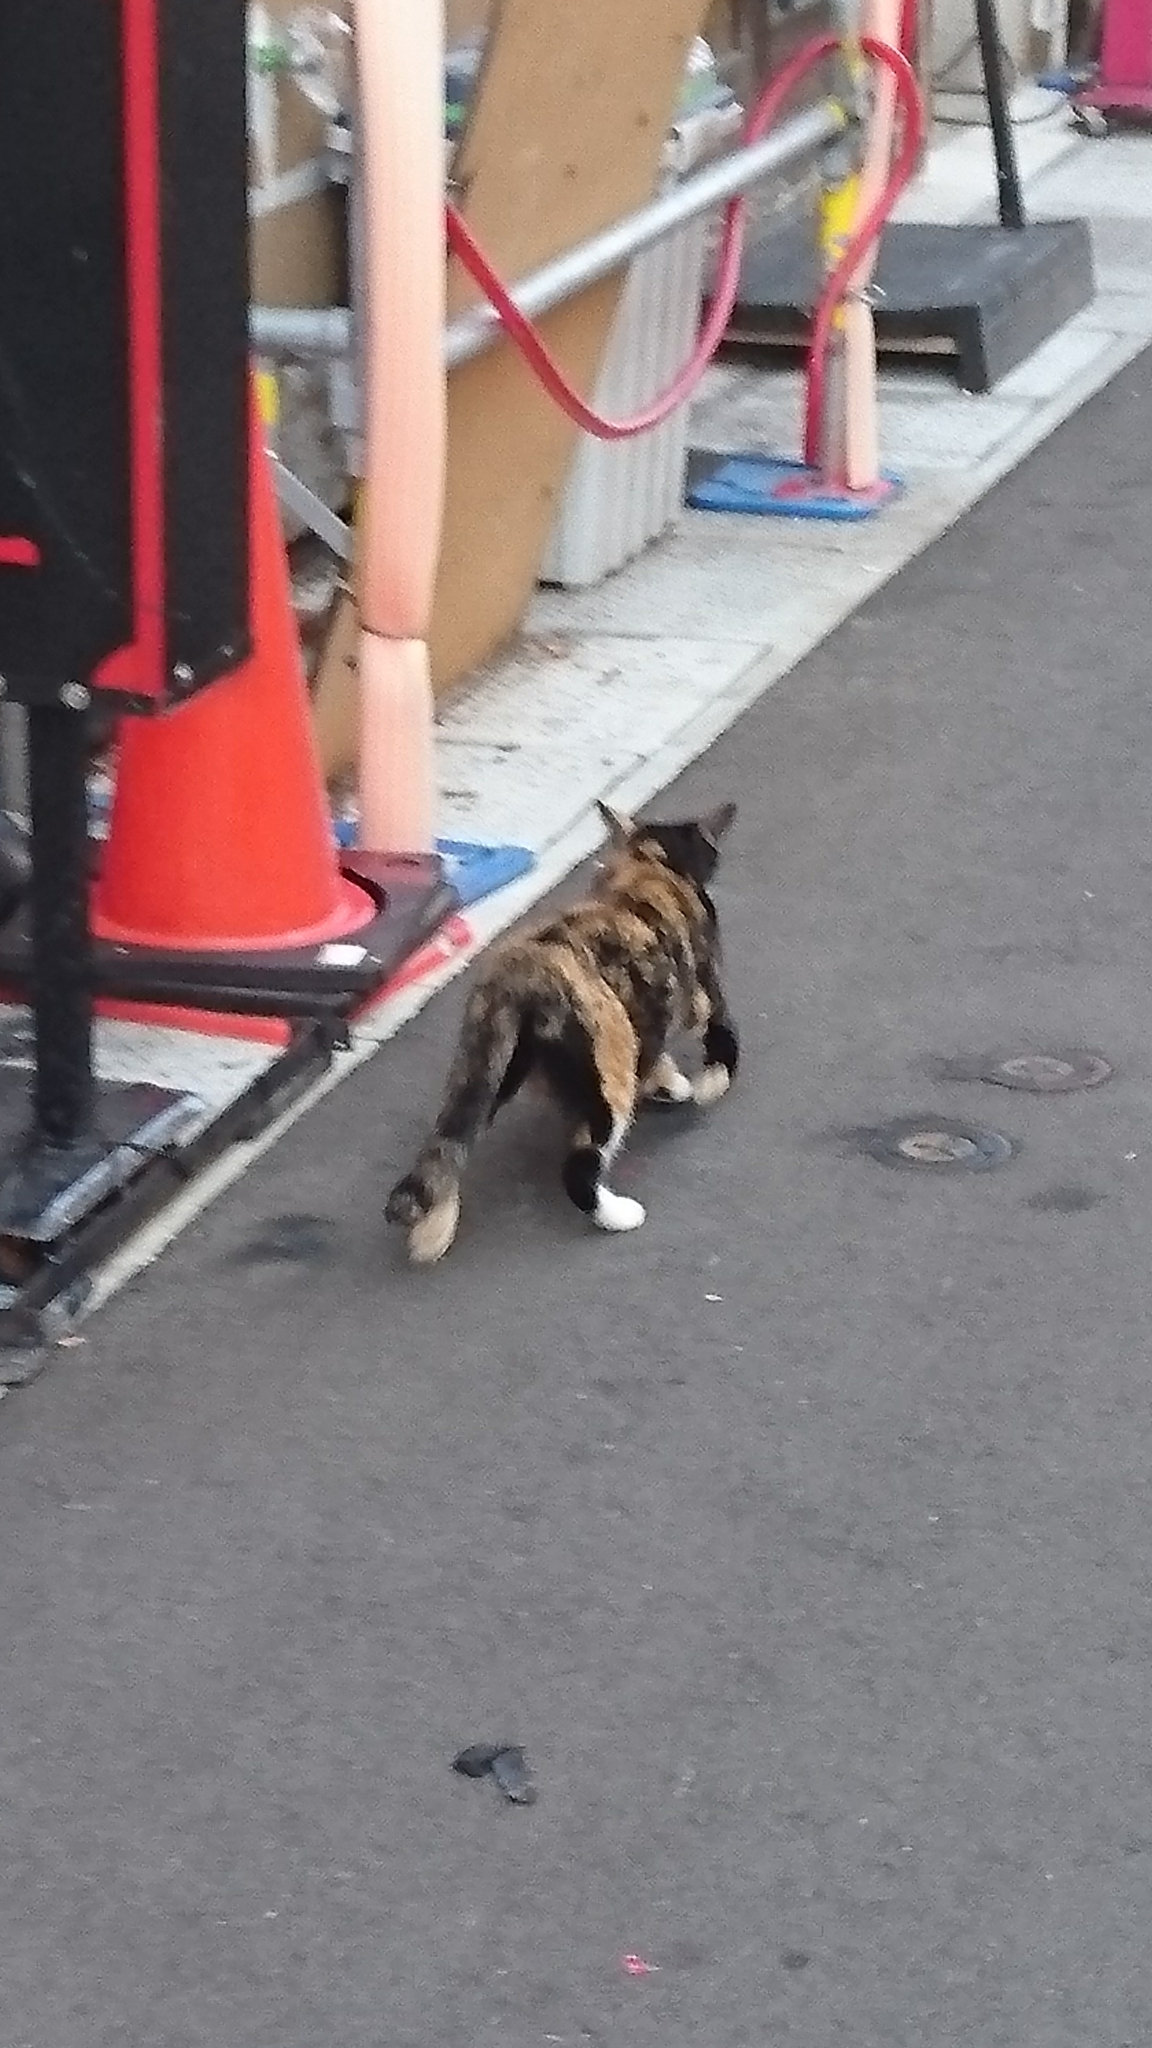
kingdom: Animalia
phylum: Chordata
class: Mammalia
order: Carnivora
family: Felidae
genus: Felis
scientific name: Felis catus
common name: Domestic cat
